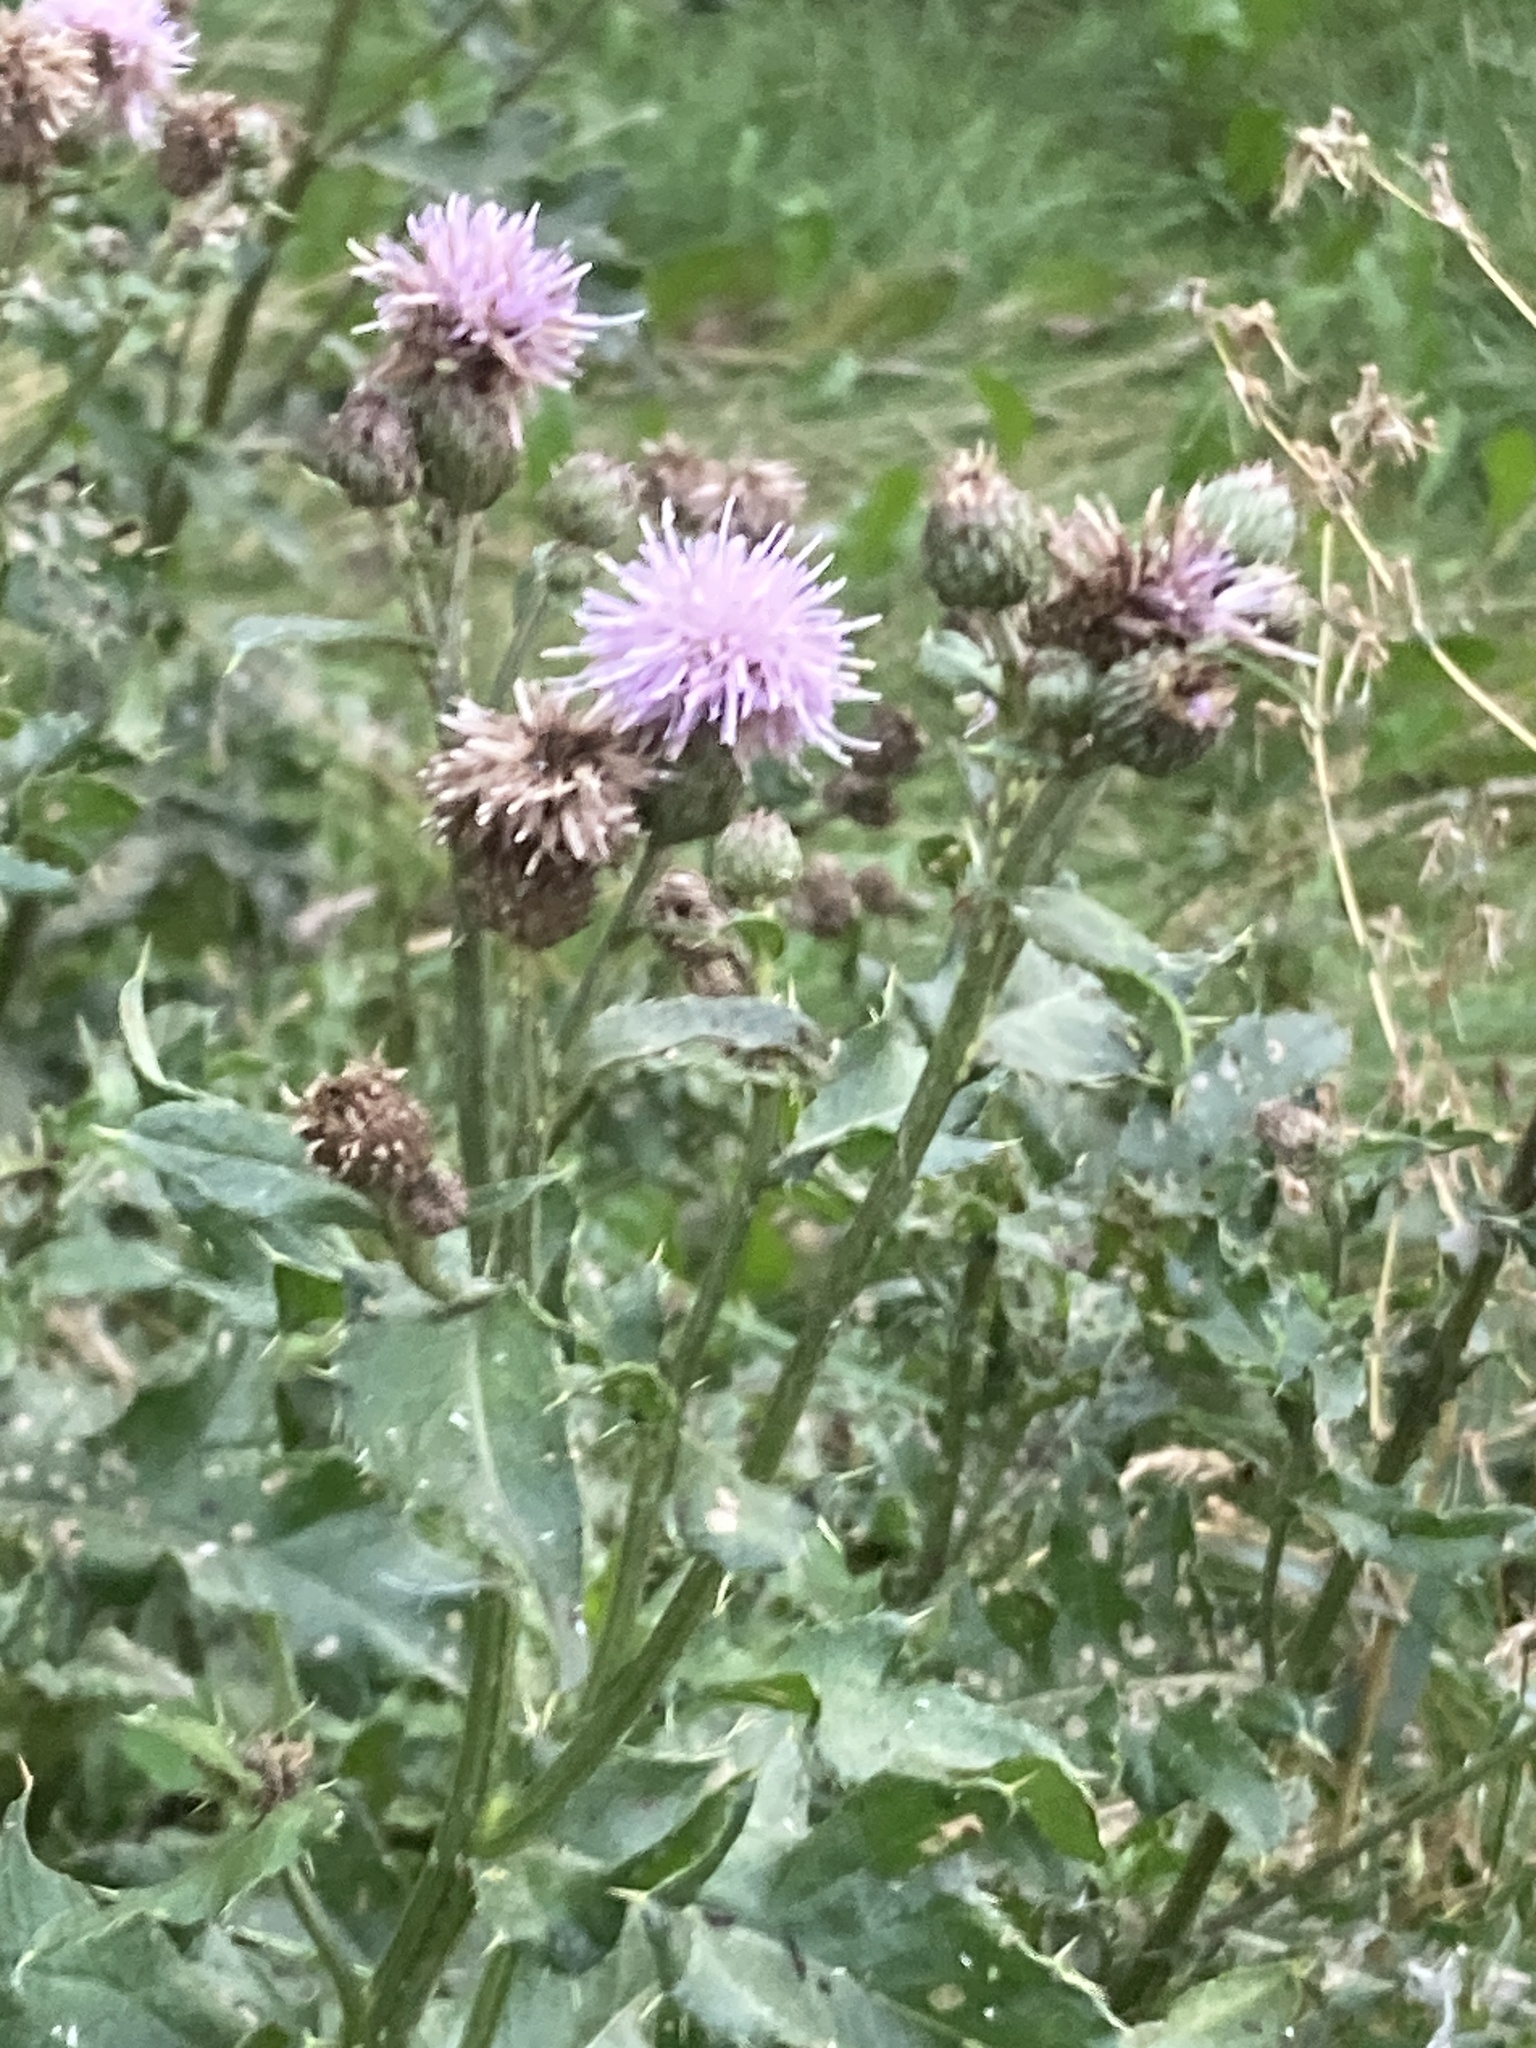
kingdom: Plantae
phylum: Tracheophyta
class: Magnoliopsida
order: Asterales
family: Asteraceae
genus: Cirsium
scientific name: Cirsium arvense
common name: Creeping thistle
